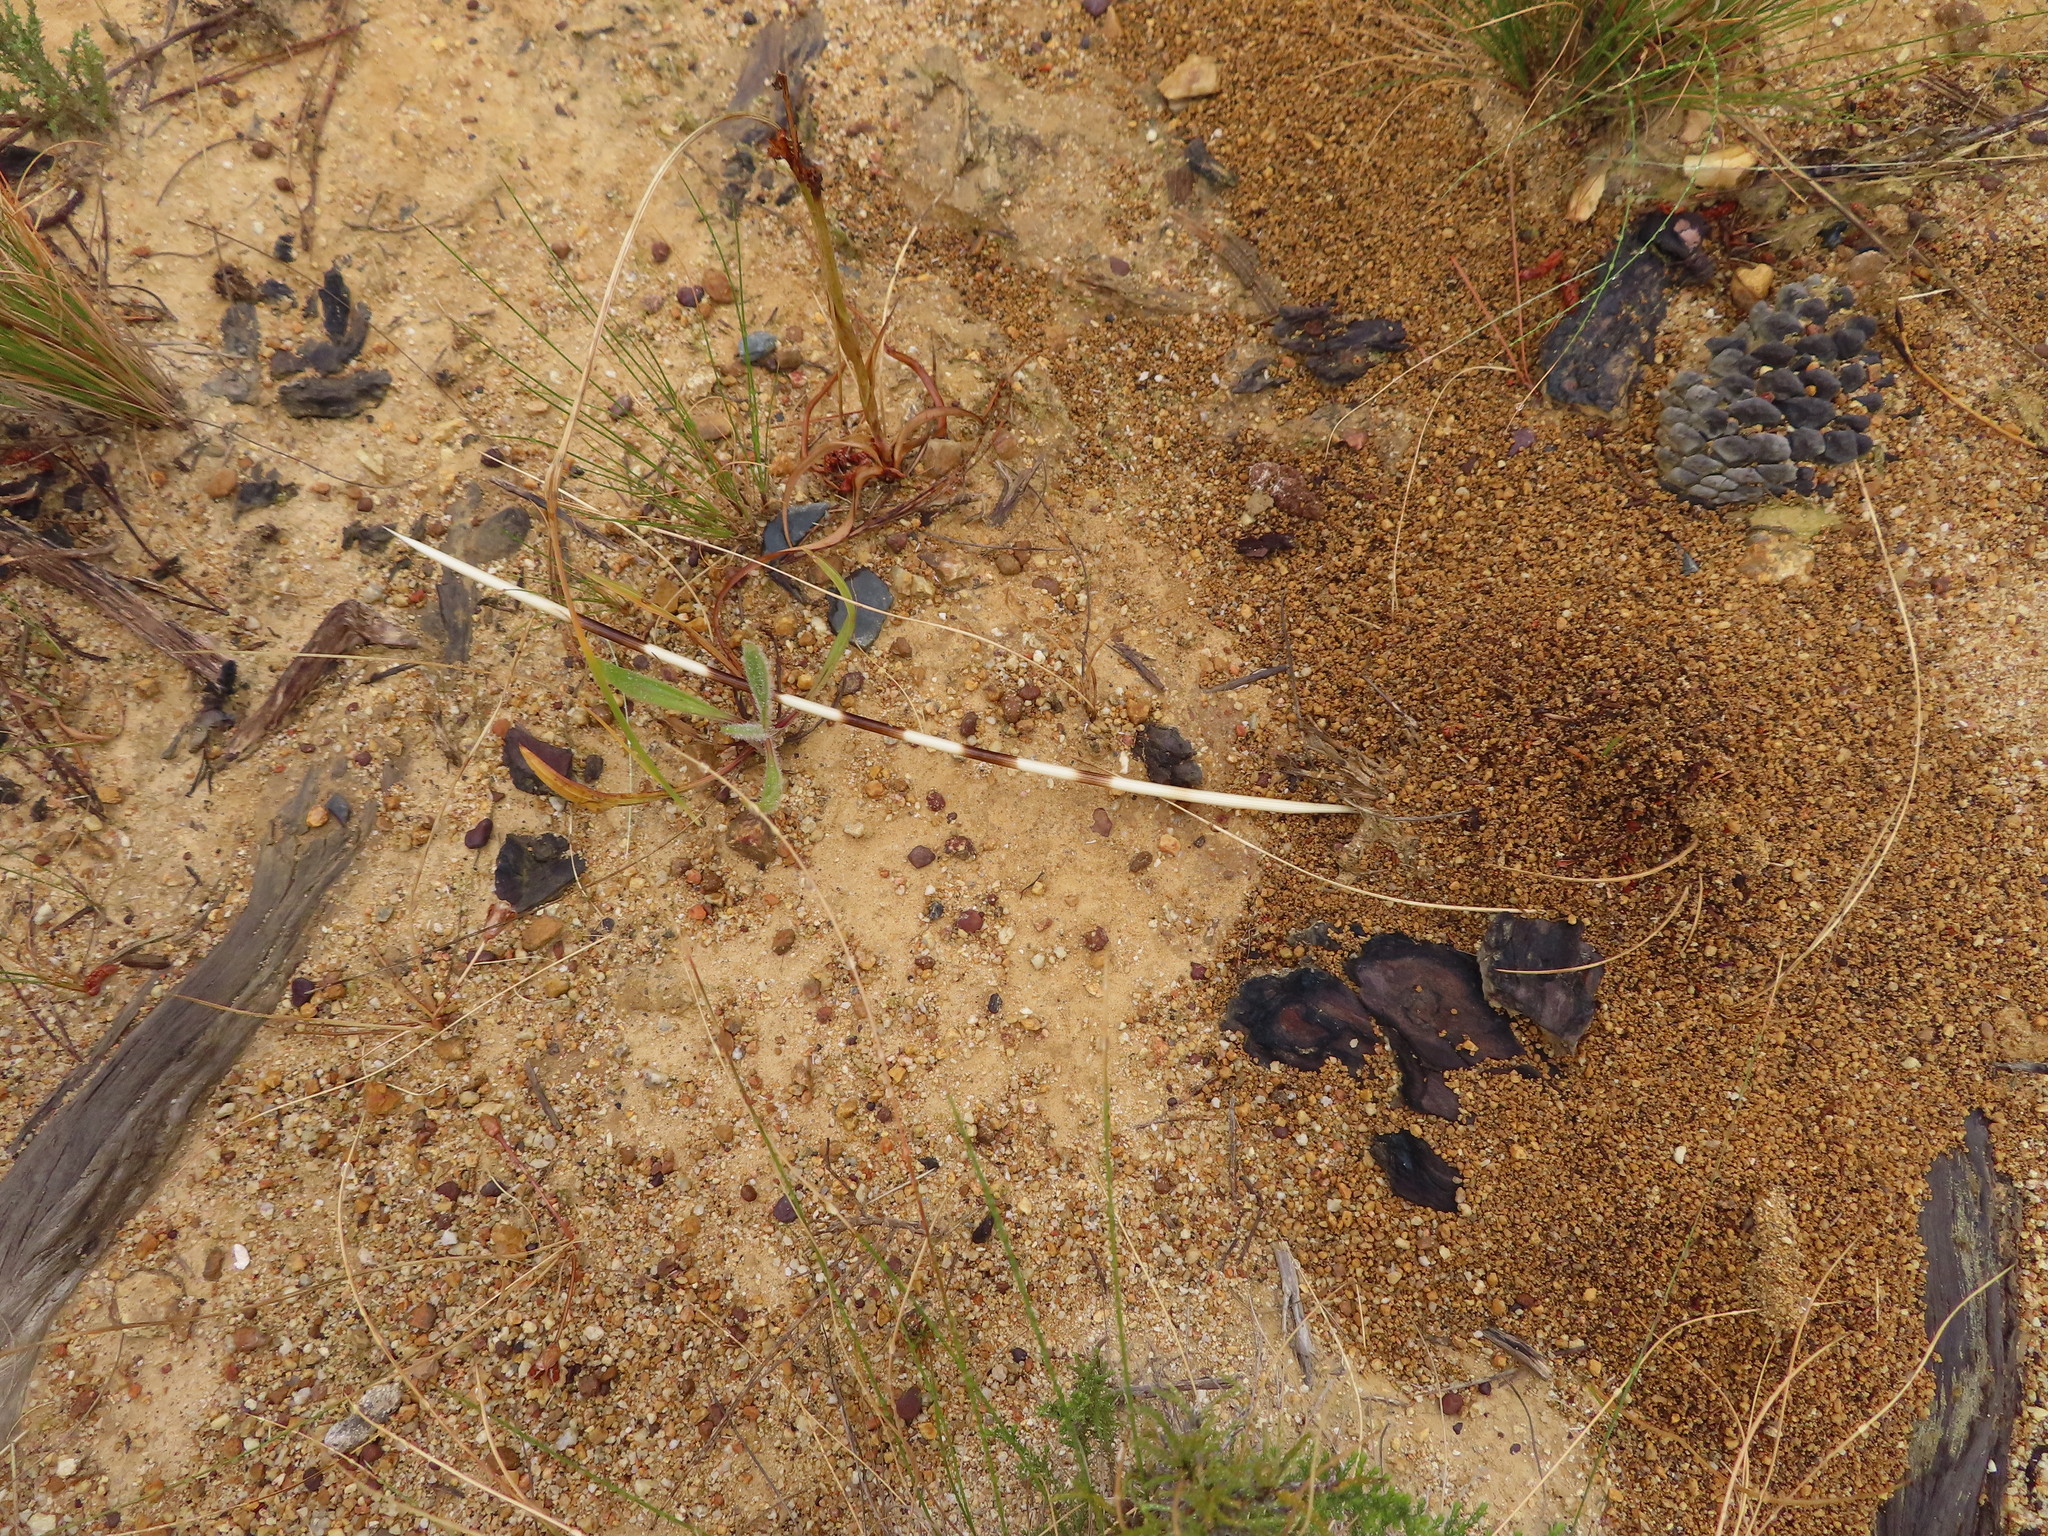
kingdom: Animalia
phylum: Chordata
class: Mammalia
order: Rodentia
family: Hystricidae
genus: Hystrix
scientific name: Hystrix africaeaustralis
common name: Cape porcupine
